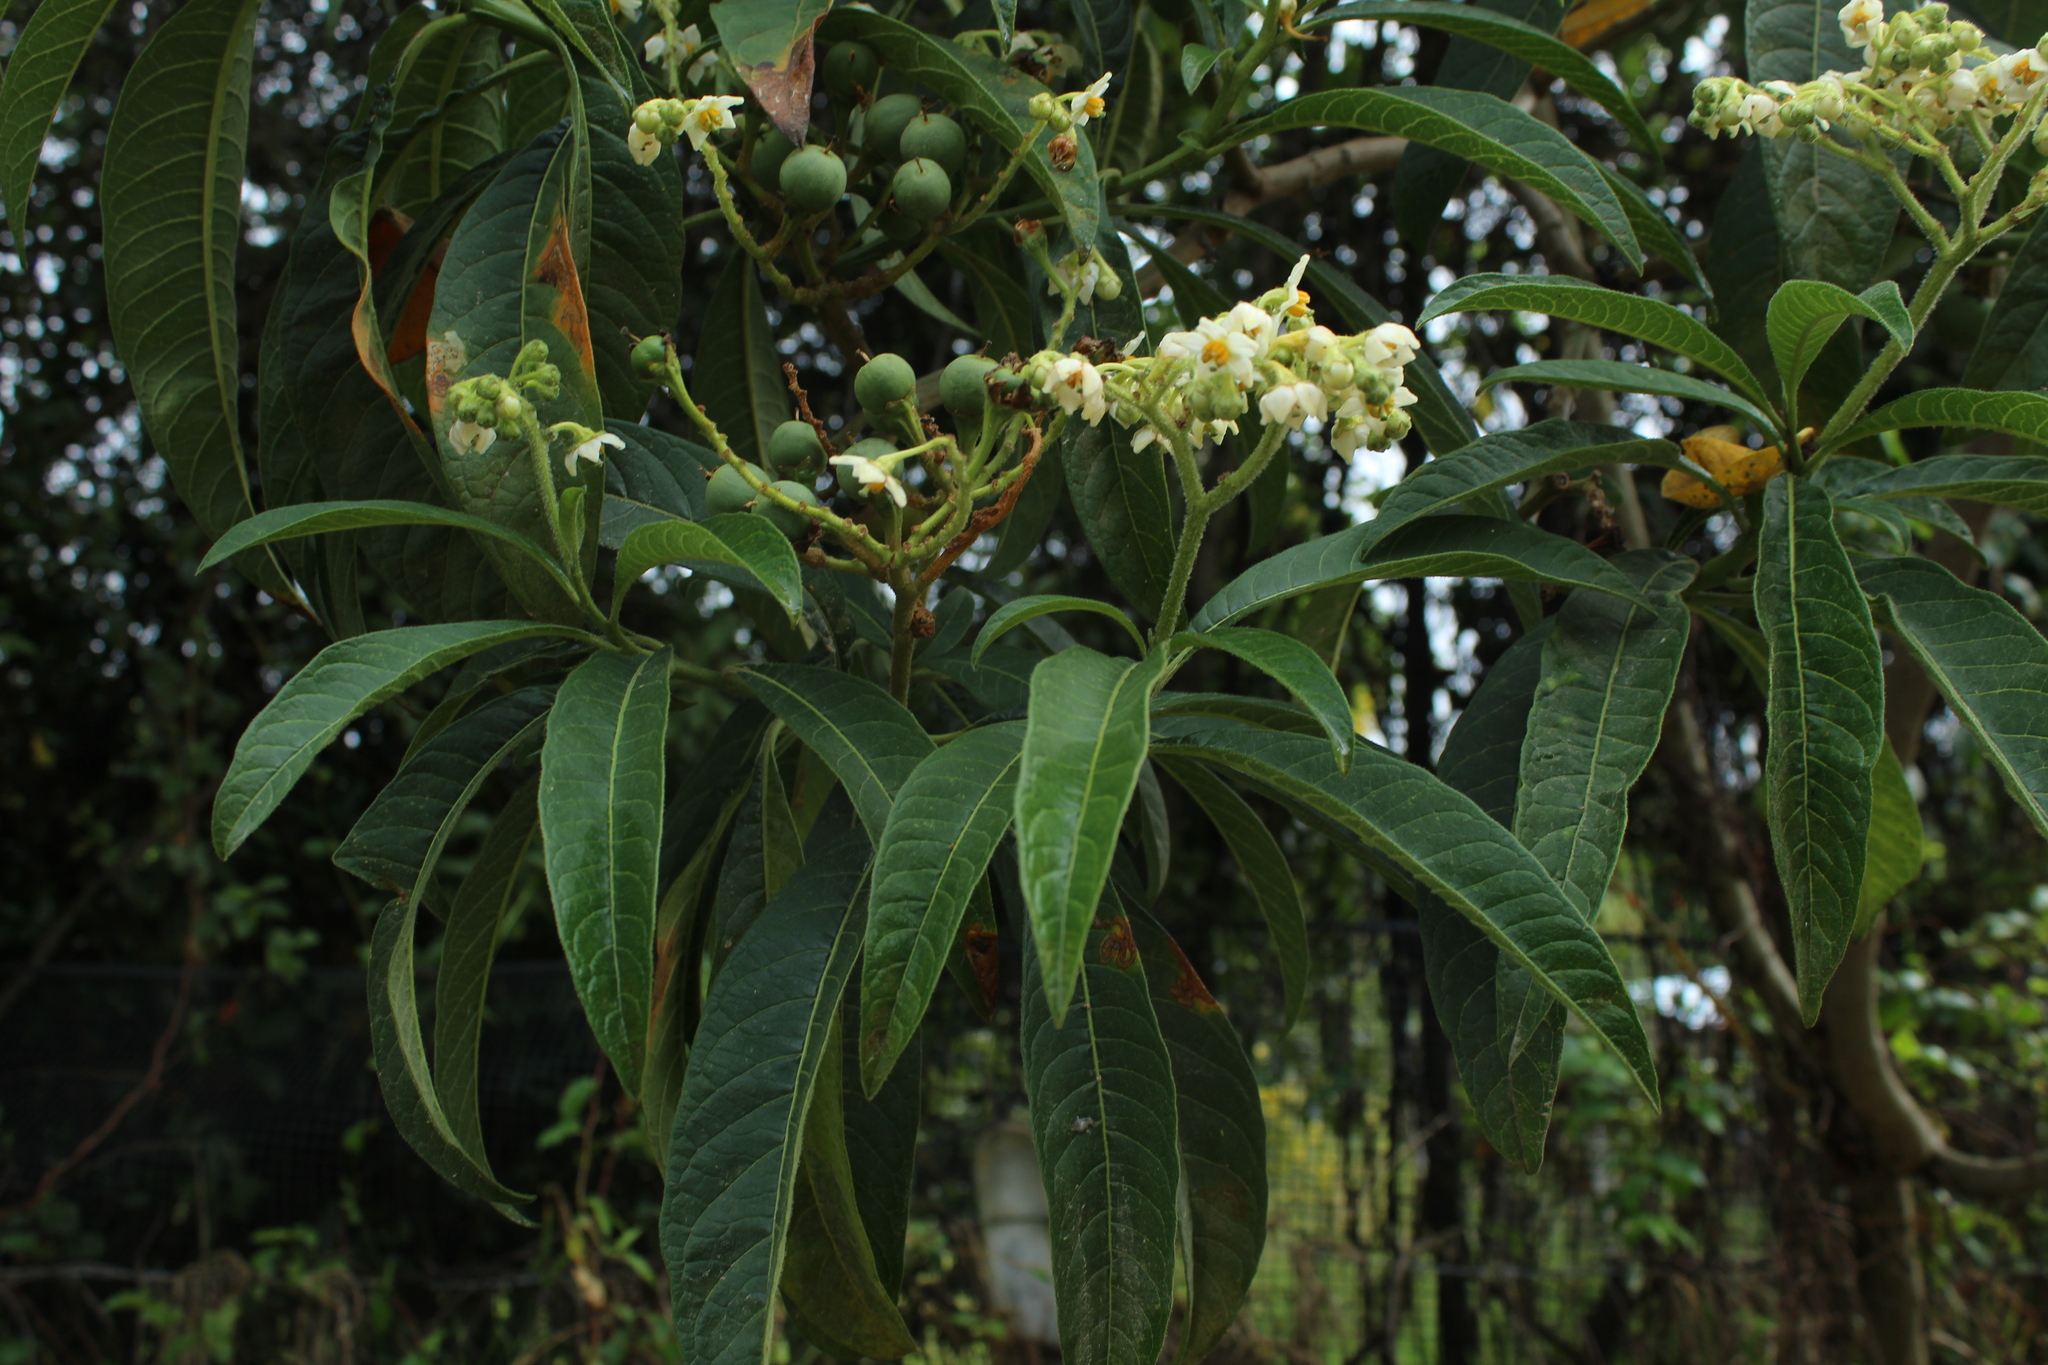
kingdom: Plantae
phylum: Tracheophyta
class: Magnoliopsida
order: Solanales
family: Solanaceae
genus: Solanum
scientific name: Solanum oblongifolium
